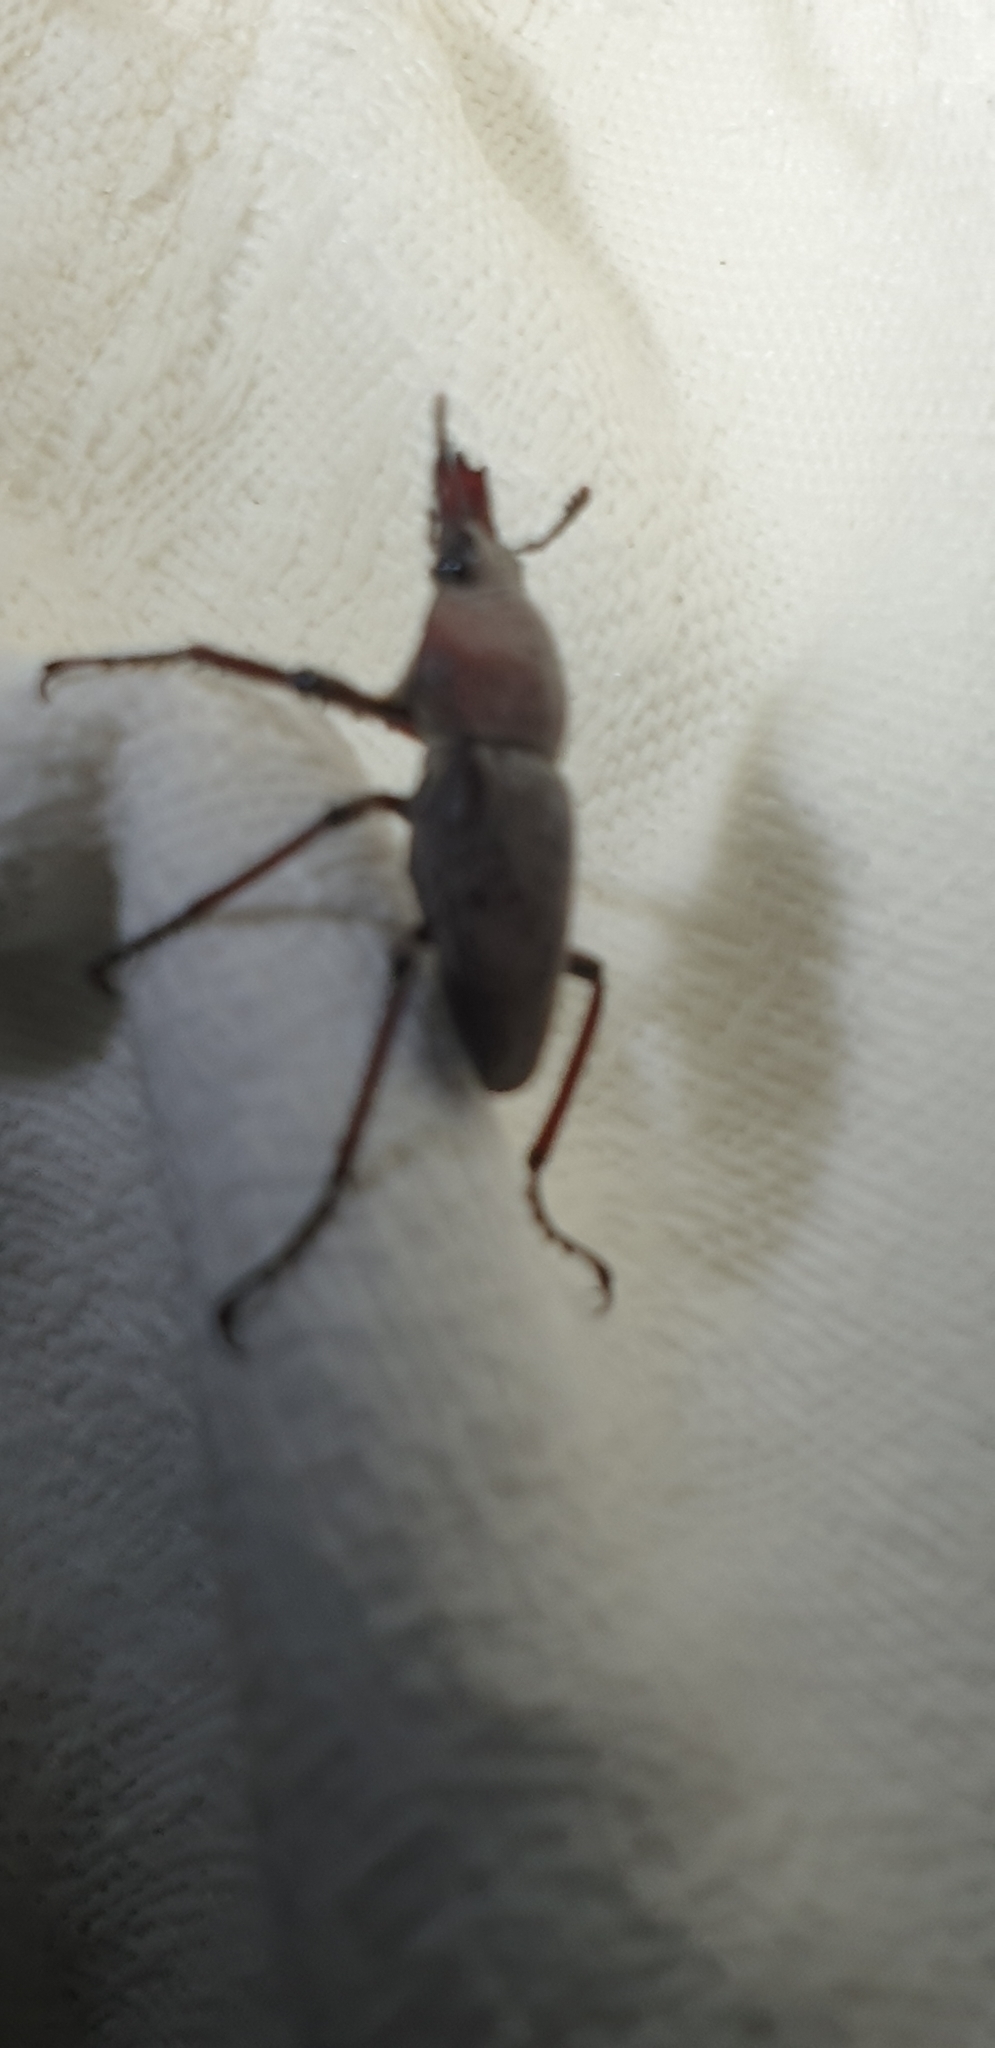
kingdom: Animalia
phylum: Arthropoda
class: Insecta
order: Coleoptera
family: Lucanidae
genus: Cacostomus
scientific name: Cacostomus squamosus
